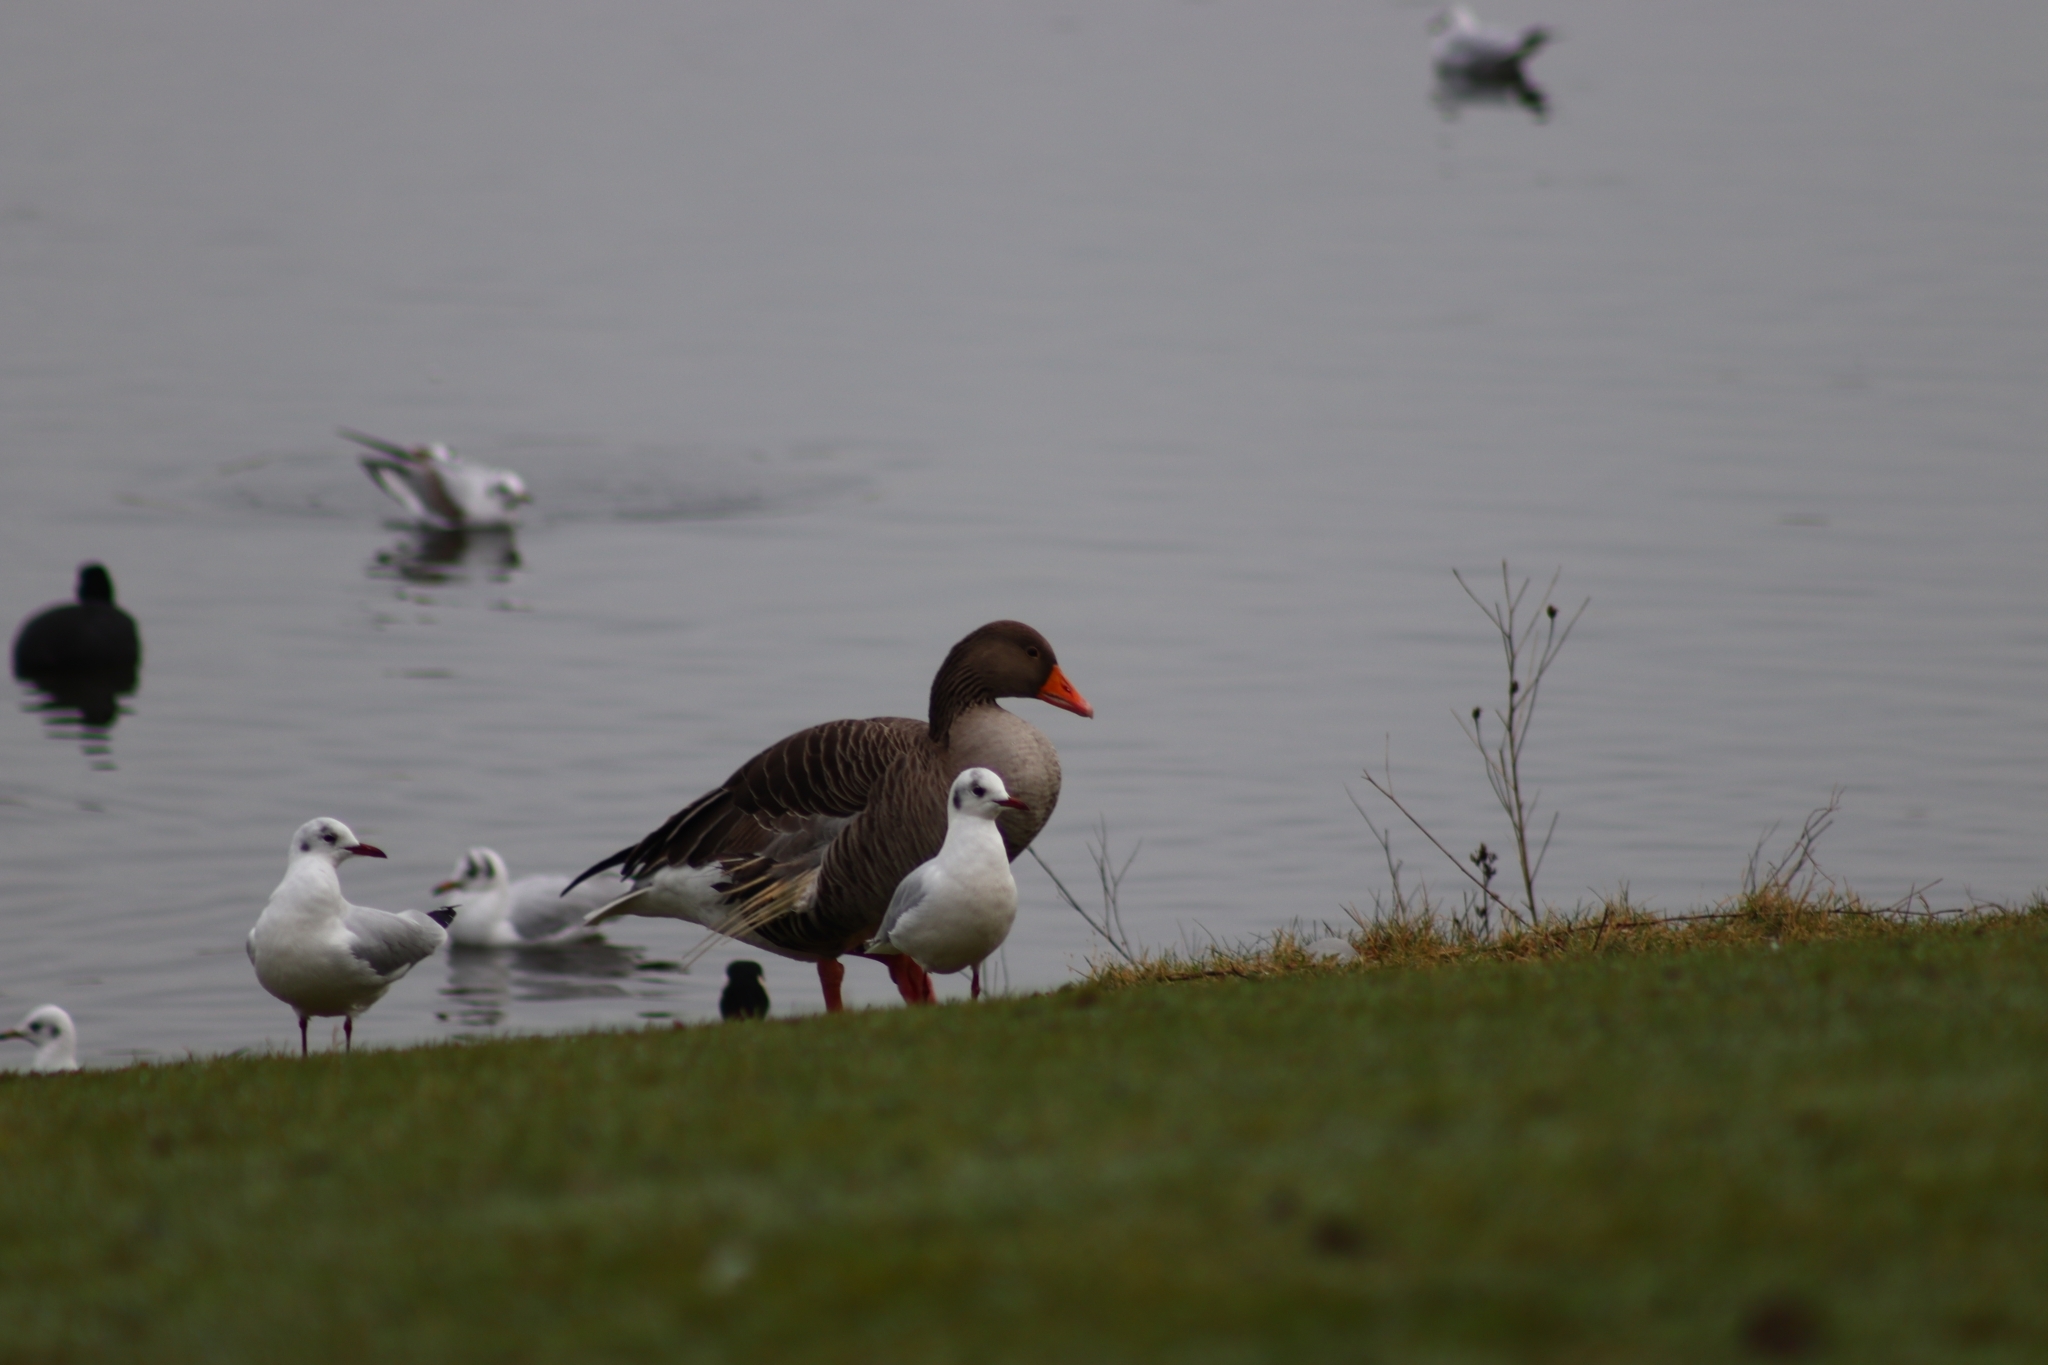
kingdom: Animalia
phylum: Chordata
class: Aves
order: Anseriformes
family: Anatidae
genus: Anser
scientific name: Anser anser
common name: Greylag goose
